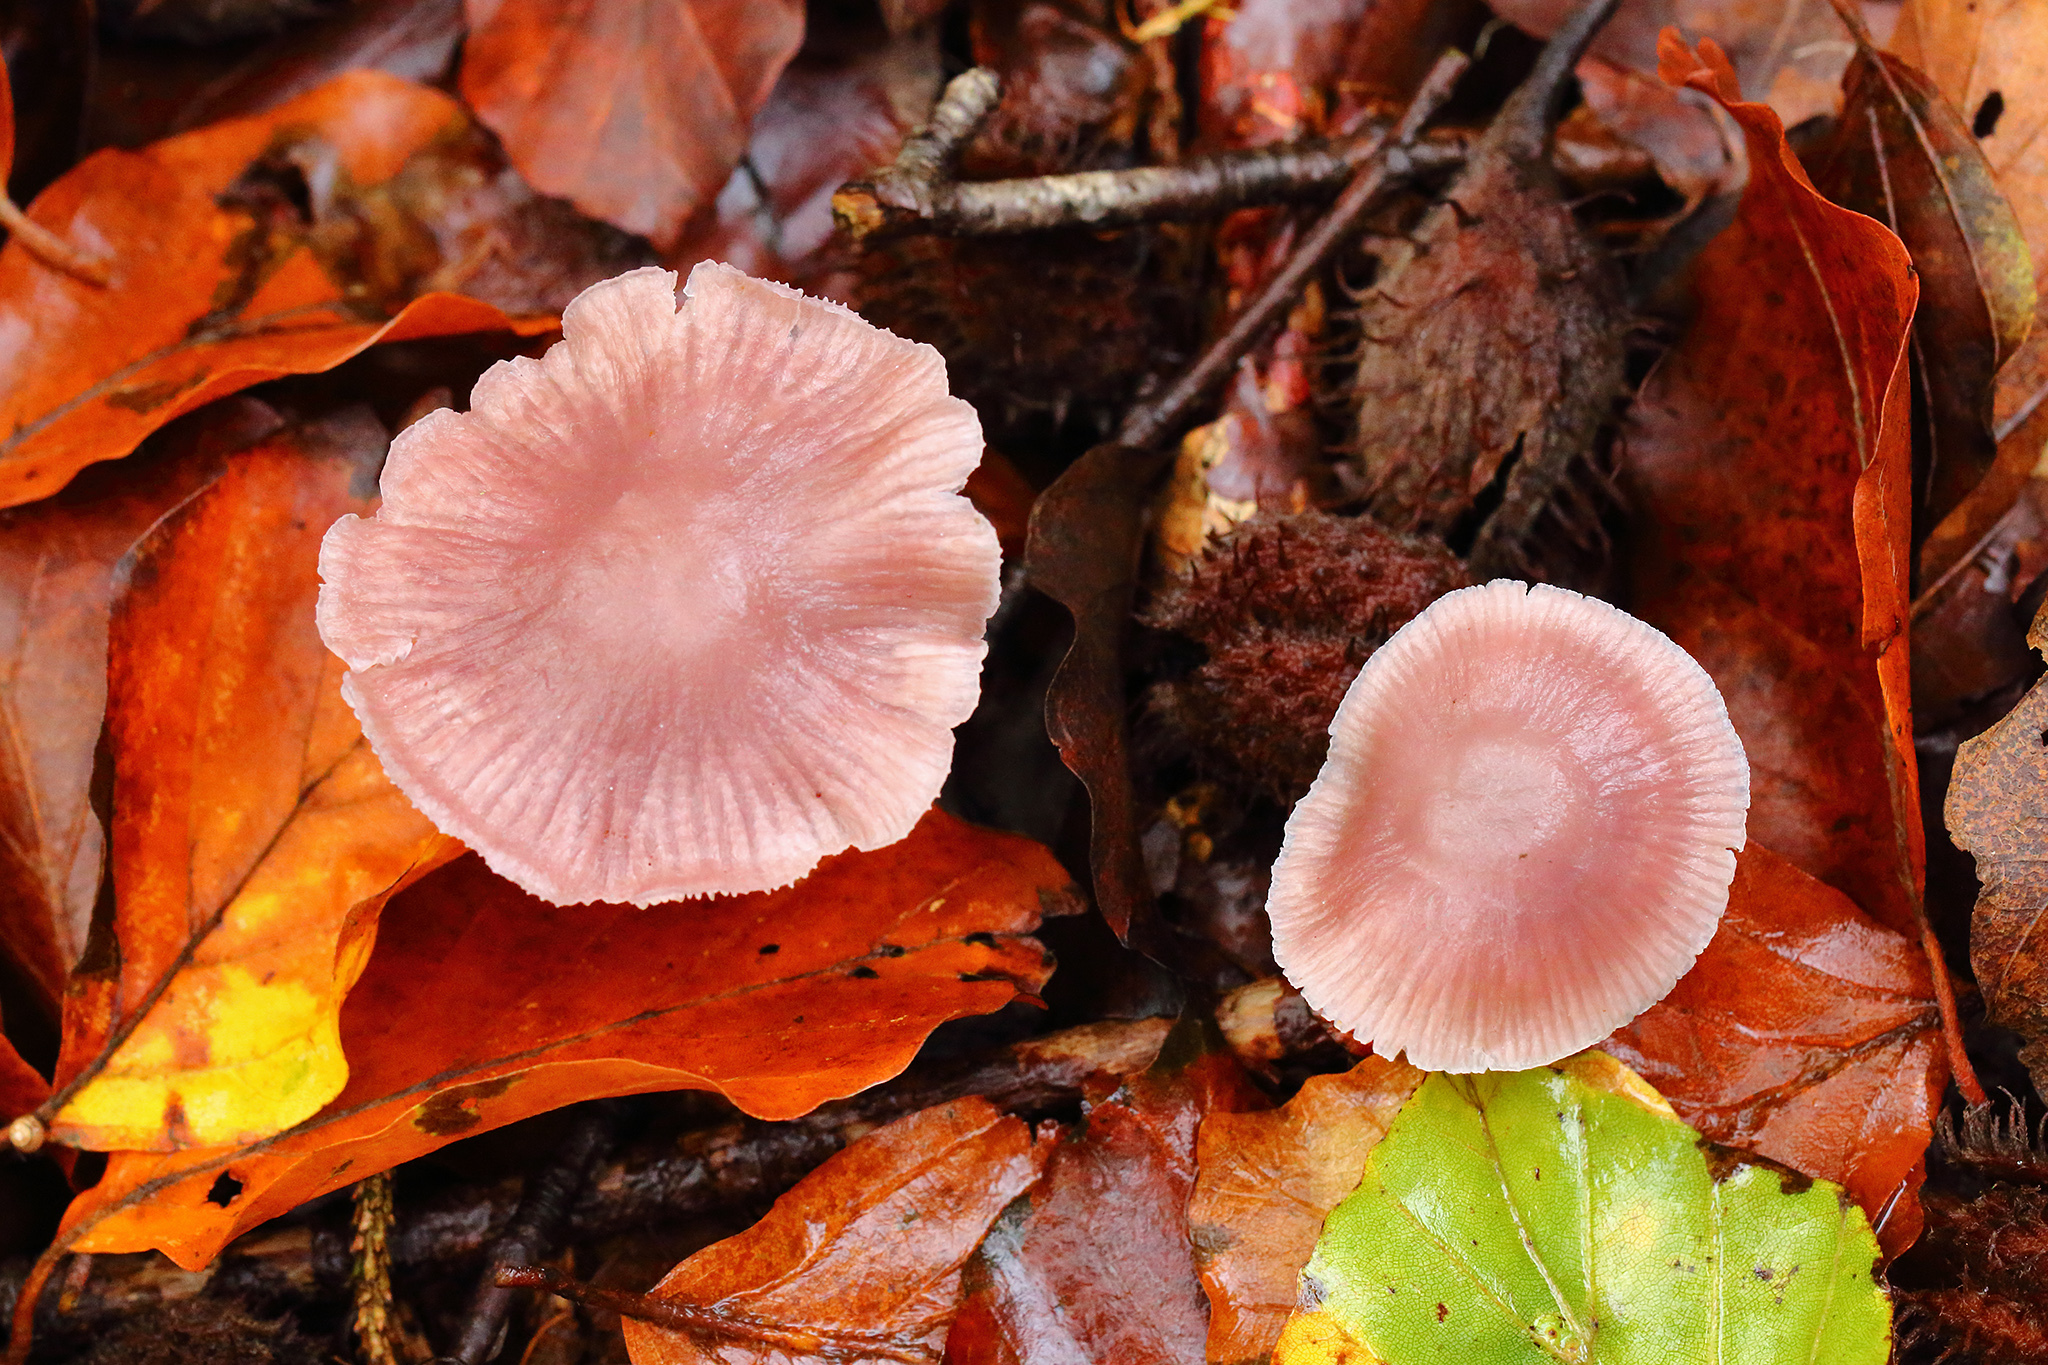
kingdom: Fungi
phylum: Basidiomycota
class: Agaricomycetes
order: Agaricales
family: Mycenaceae
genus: Mycena
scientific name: Mycena rosea
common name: Rosy bonnet
